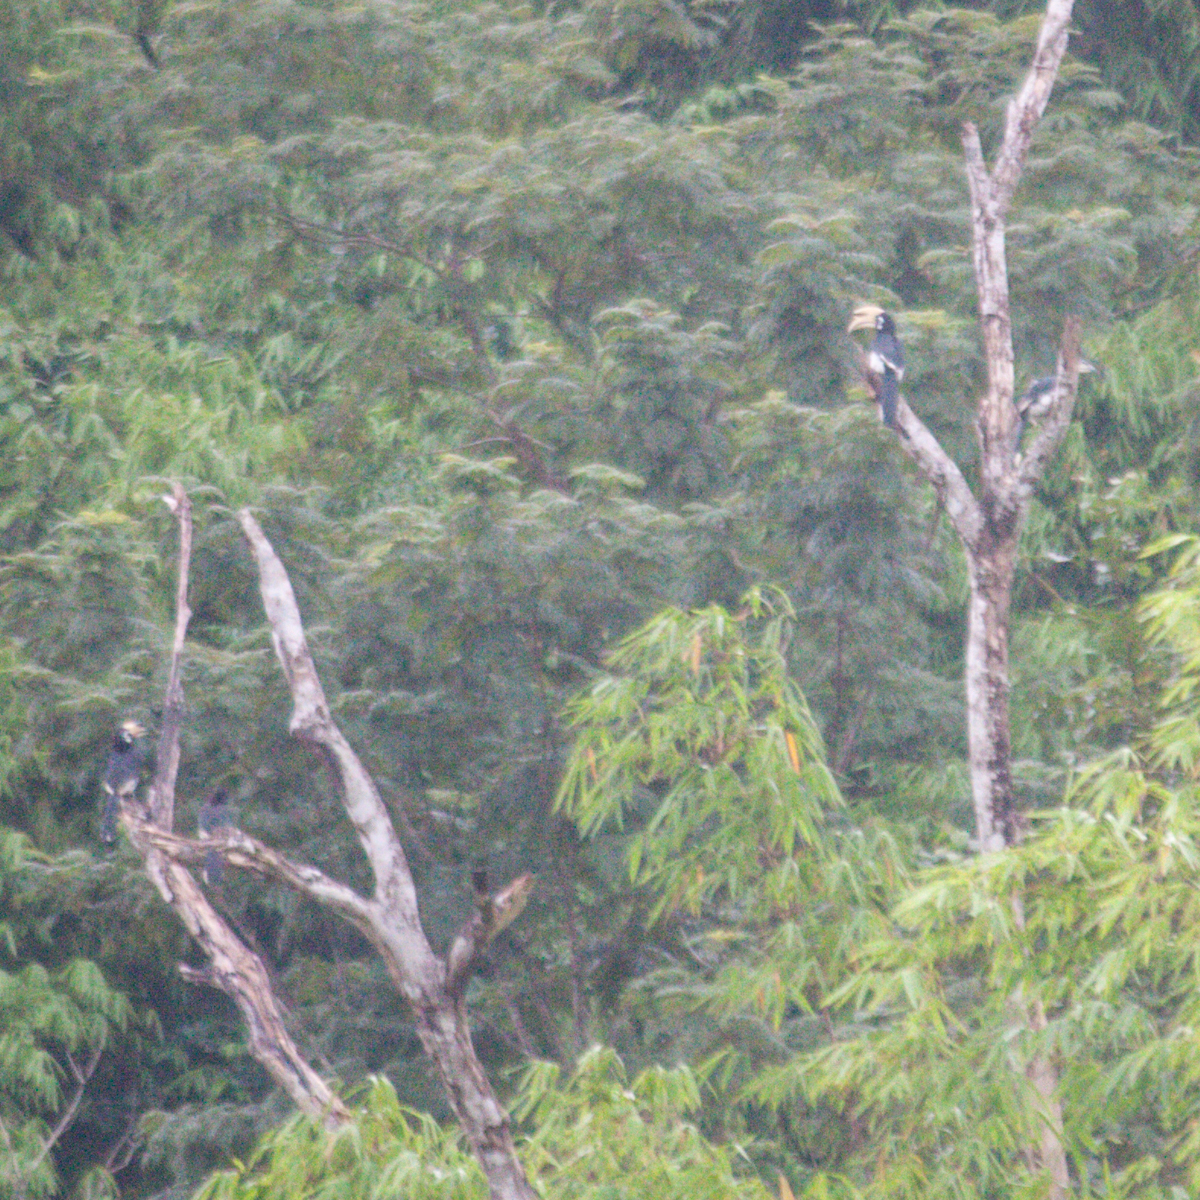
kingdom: Animalia
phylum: Chordata
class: Aves
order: Bucerotiformes
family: Bucerotidae
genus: Anthracoceros
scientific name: Anthracoceros albirostris
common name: Oriental pied-hornbill
